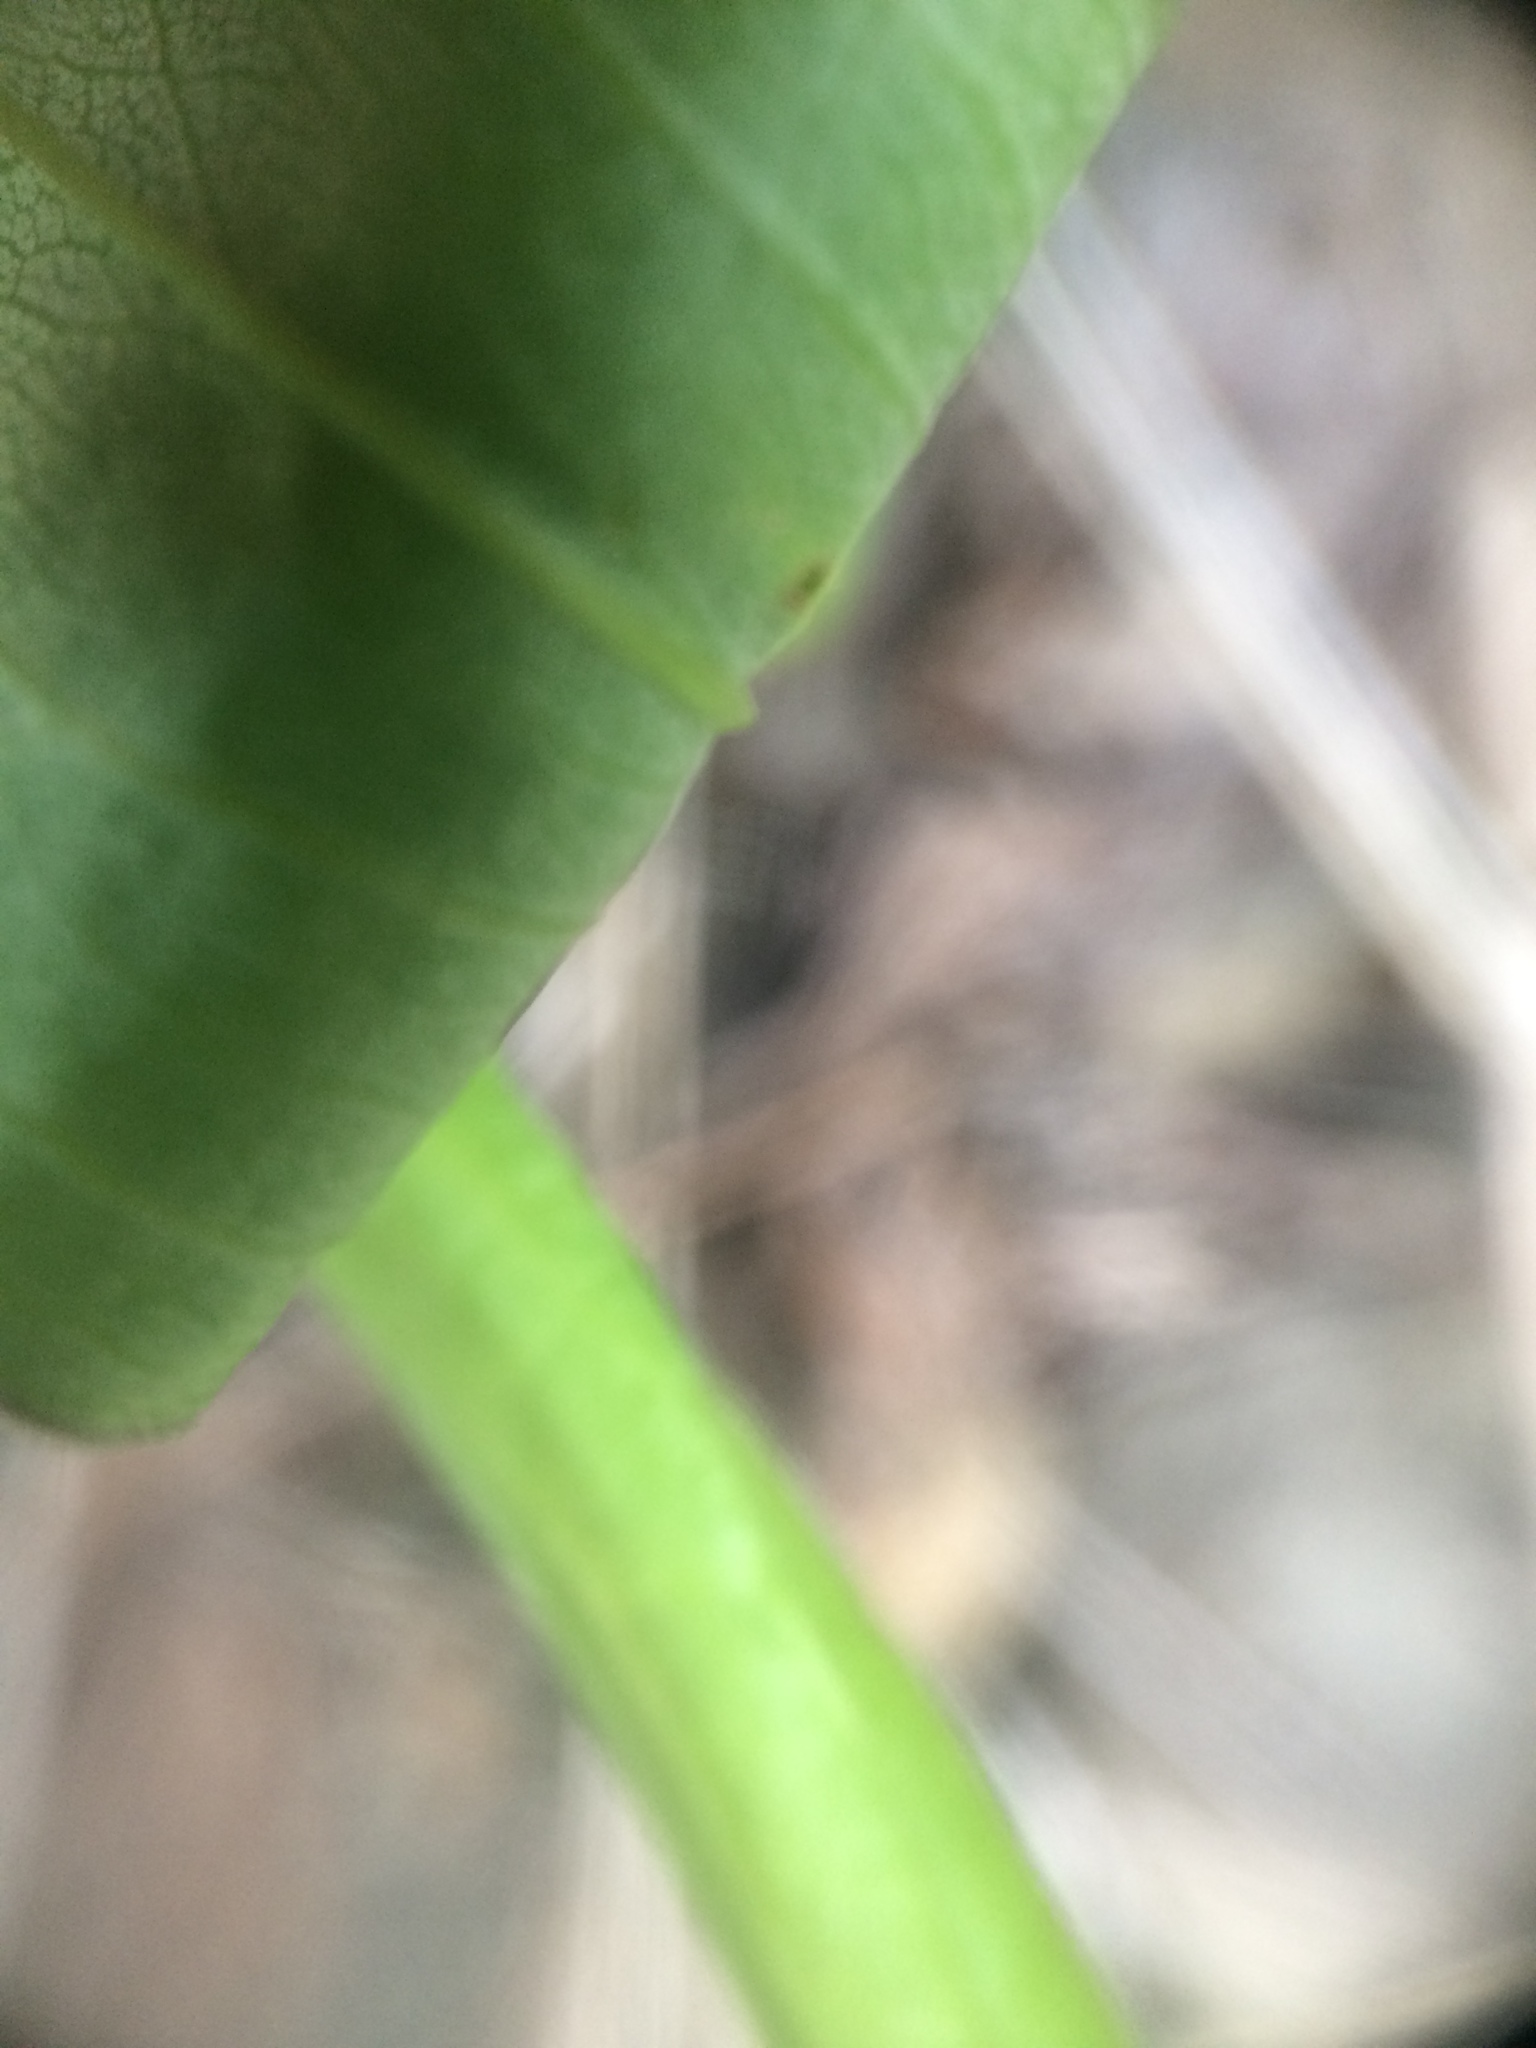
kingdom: Plantae
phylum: Tracheophyta
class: Magnoliopsida
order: Asterales
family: Asteraceae
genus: Solidago
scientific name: Solidago juncea
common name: Early goldenrod
